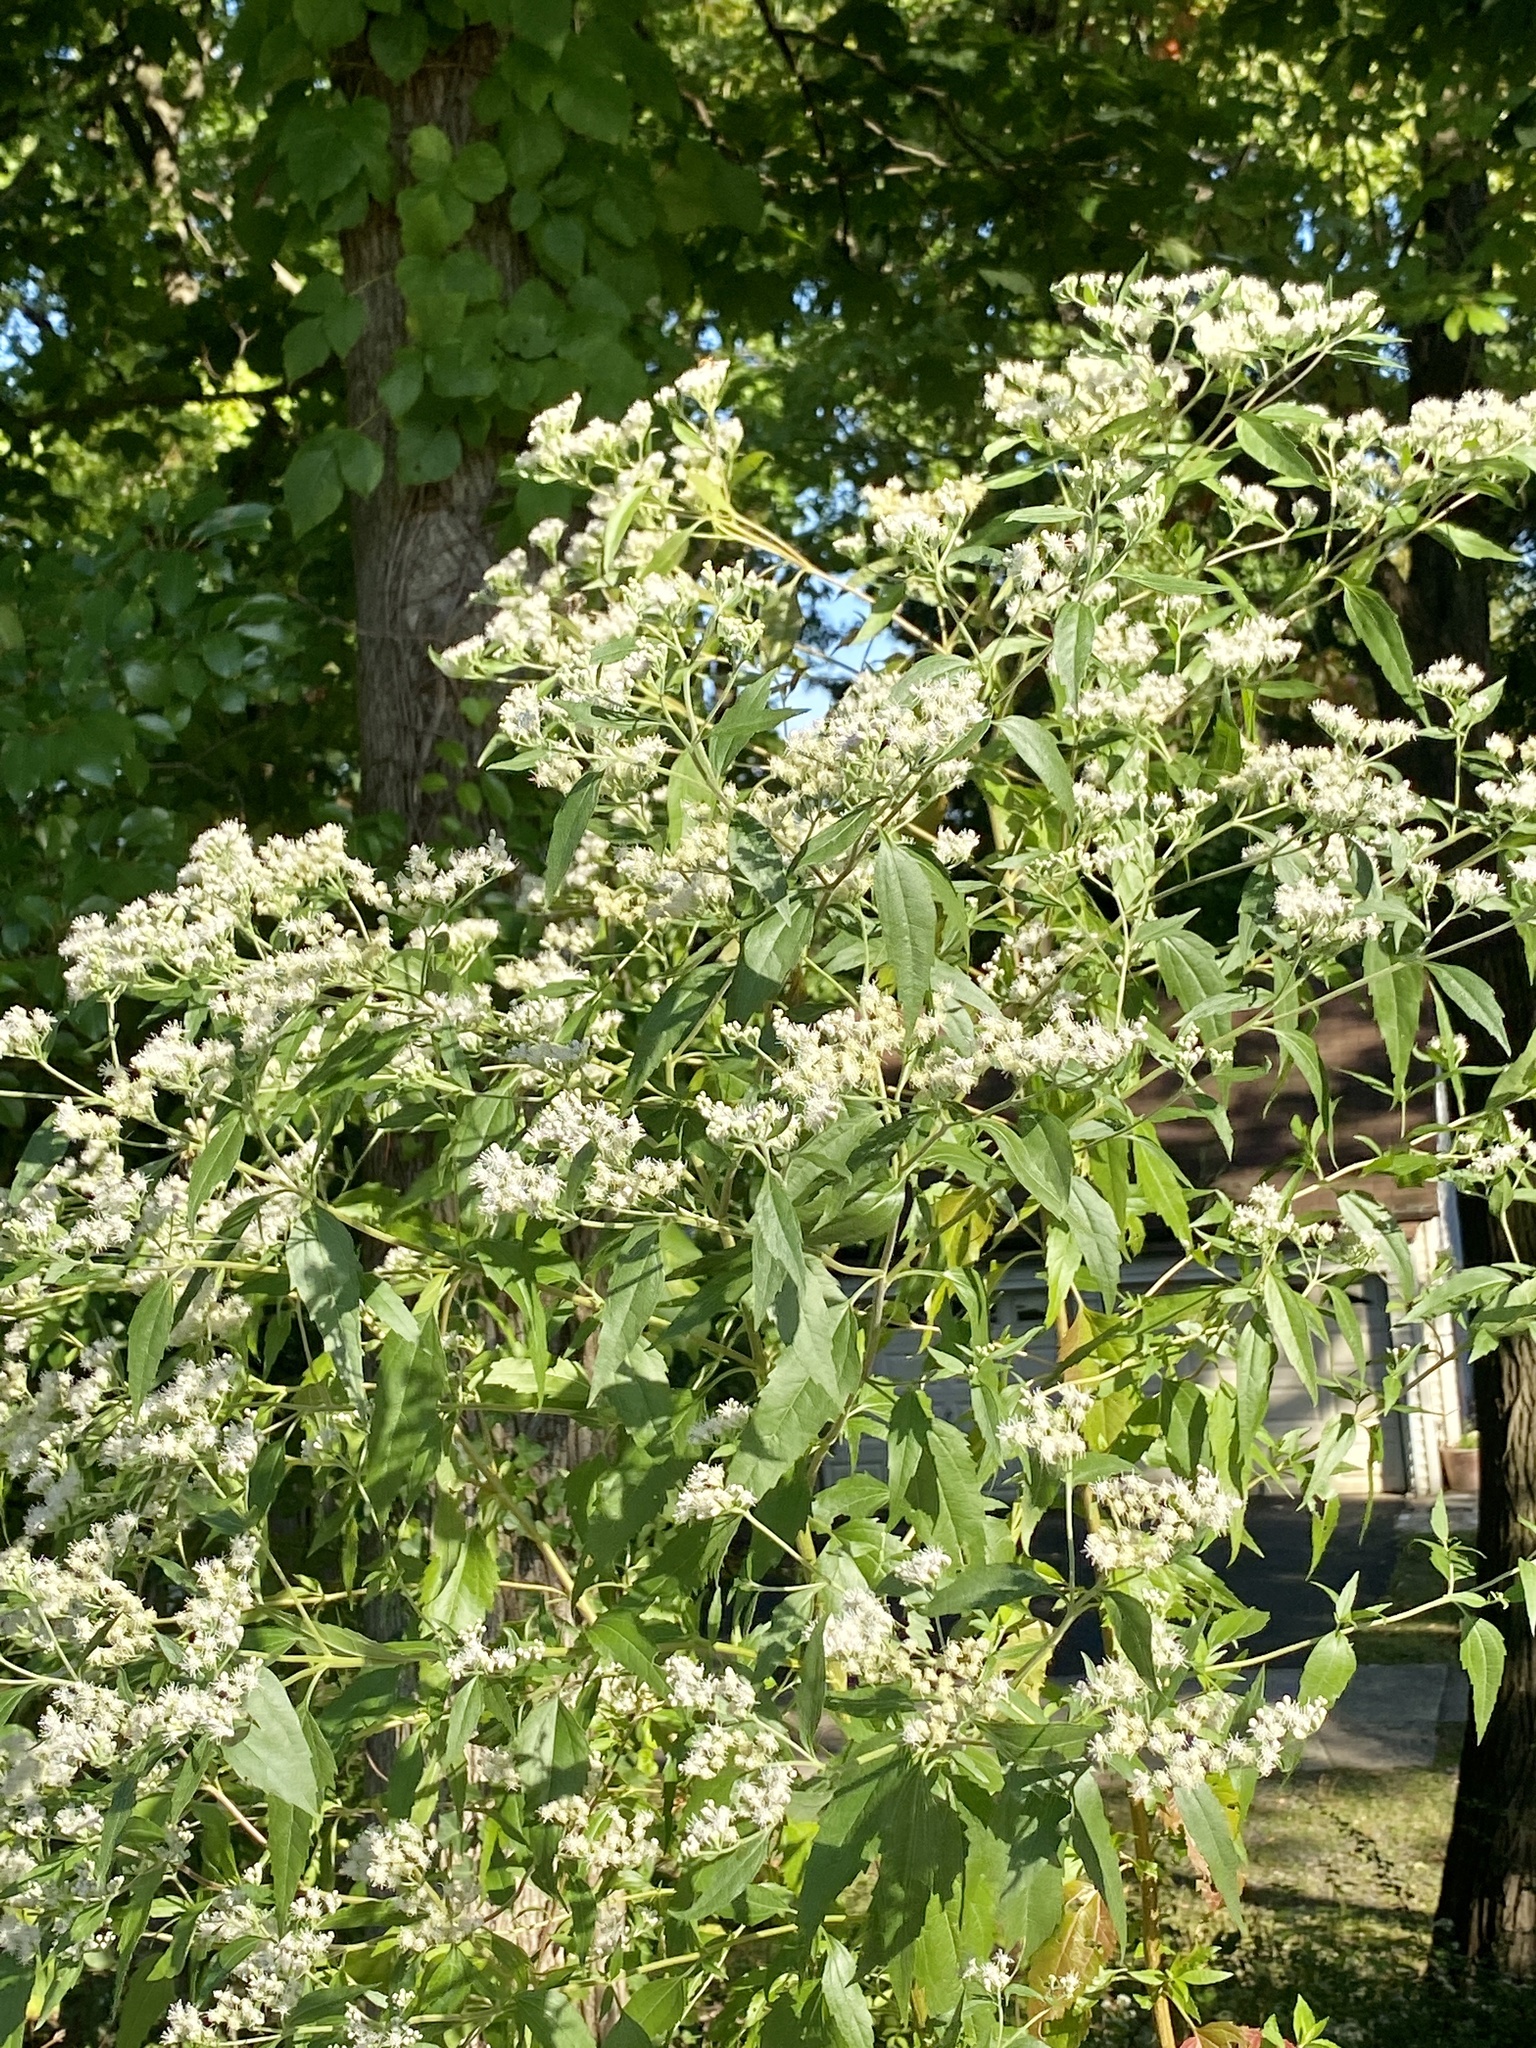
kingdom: Plantae
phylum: Tracheophyta
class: Magnoliopsida
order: Asterales
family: Asteraceae
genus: Eupatorium
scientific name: Eupatorium serotinum
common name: Late boneset
